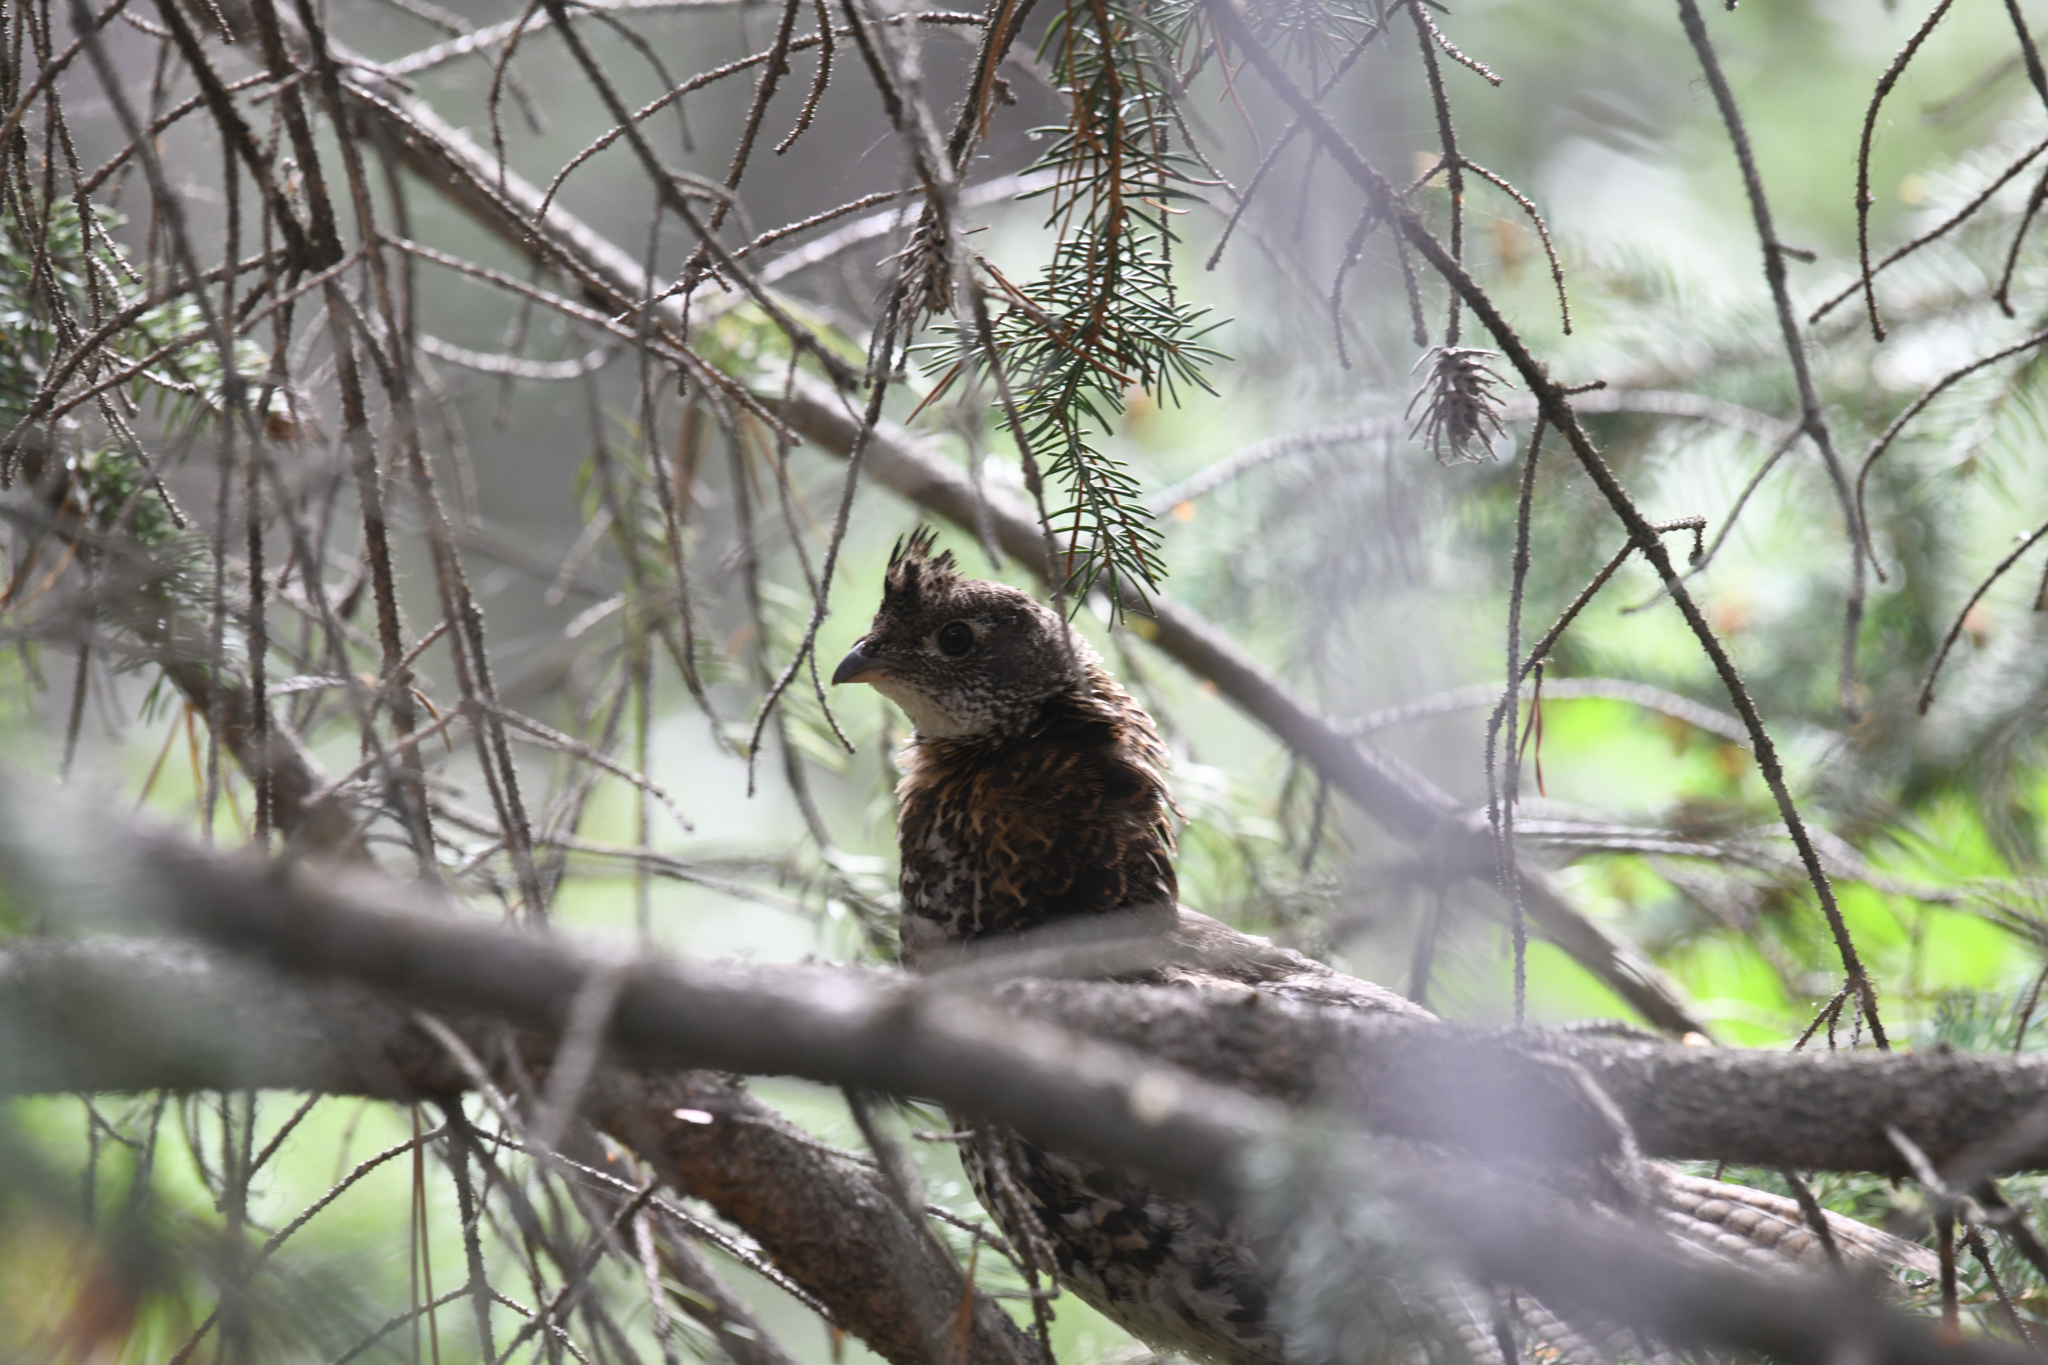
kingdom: Animalia
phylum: Chordata
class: Aves
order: Galliformes
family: Phasianidae
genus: Bonasa
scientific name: Bonasa umbellus
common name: Ruffed grouse
